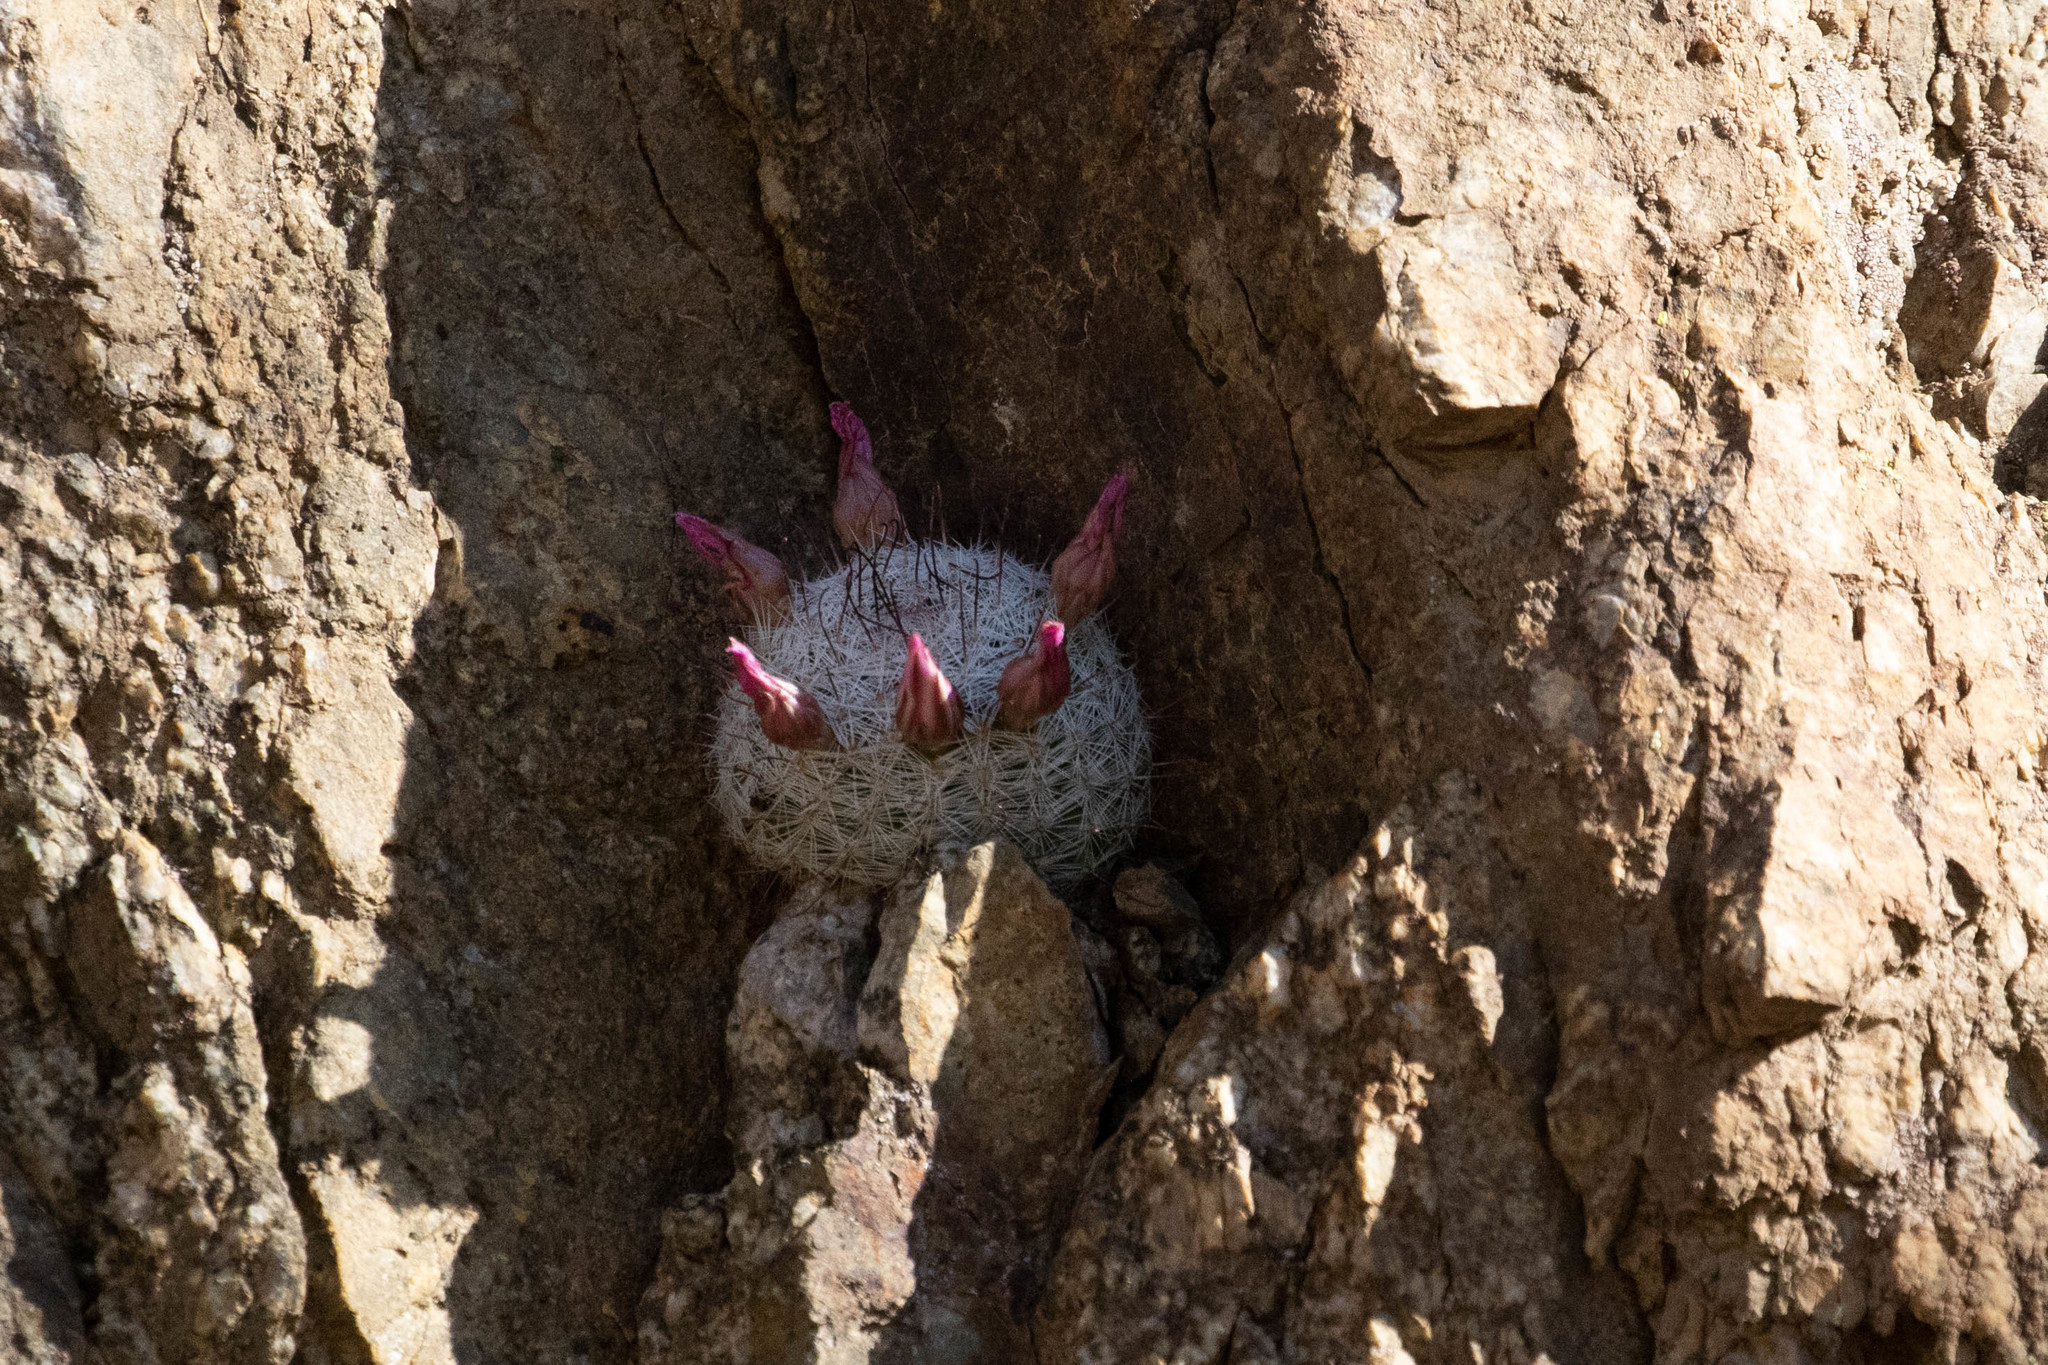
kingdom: Plantae
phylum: Tracheophyta
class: Magnoliopsida
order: Caryophyllales
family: Cactaceae
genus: Cochemiea
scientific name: Cochemiea grahamii
